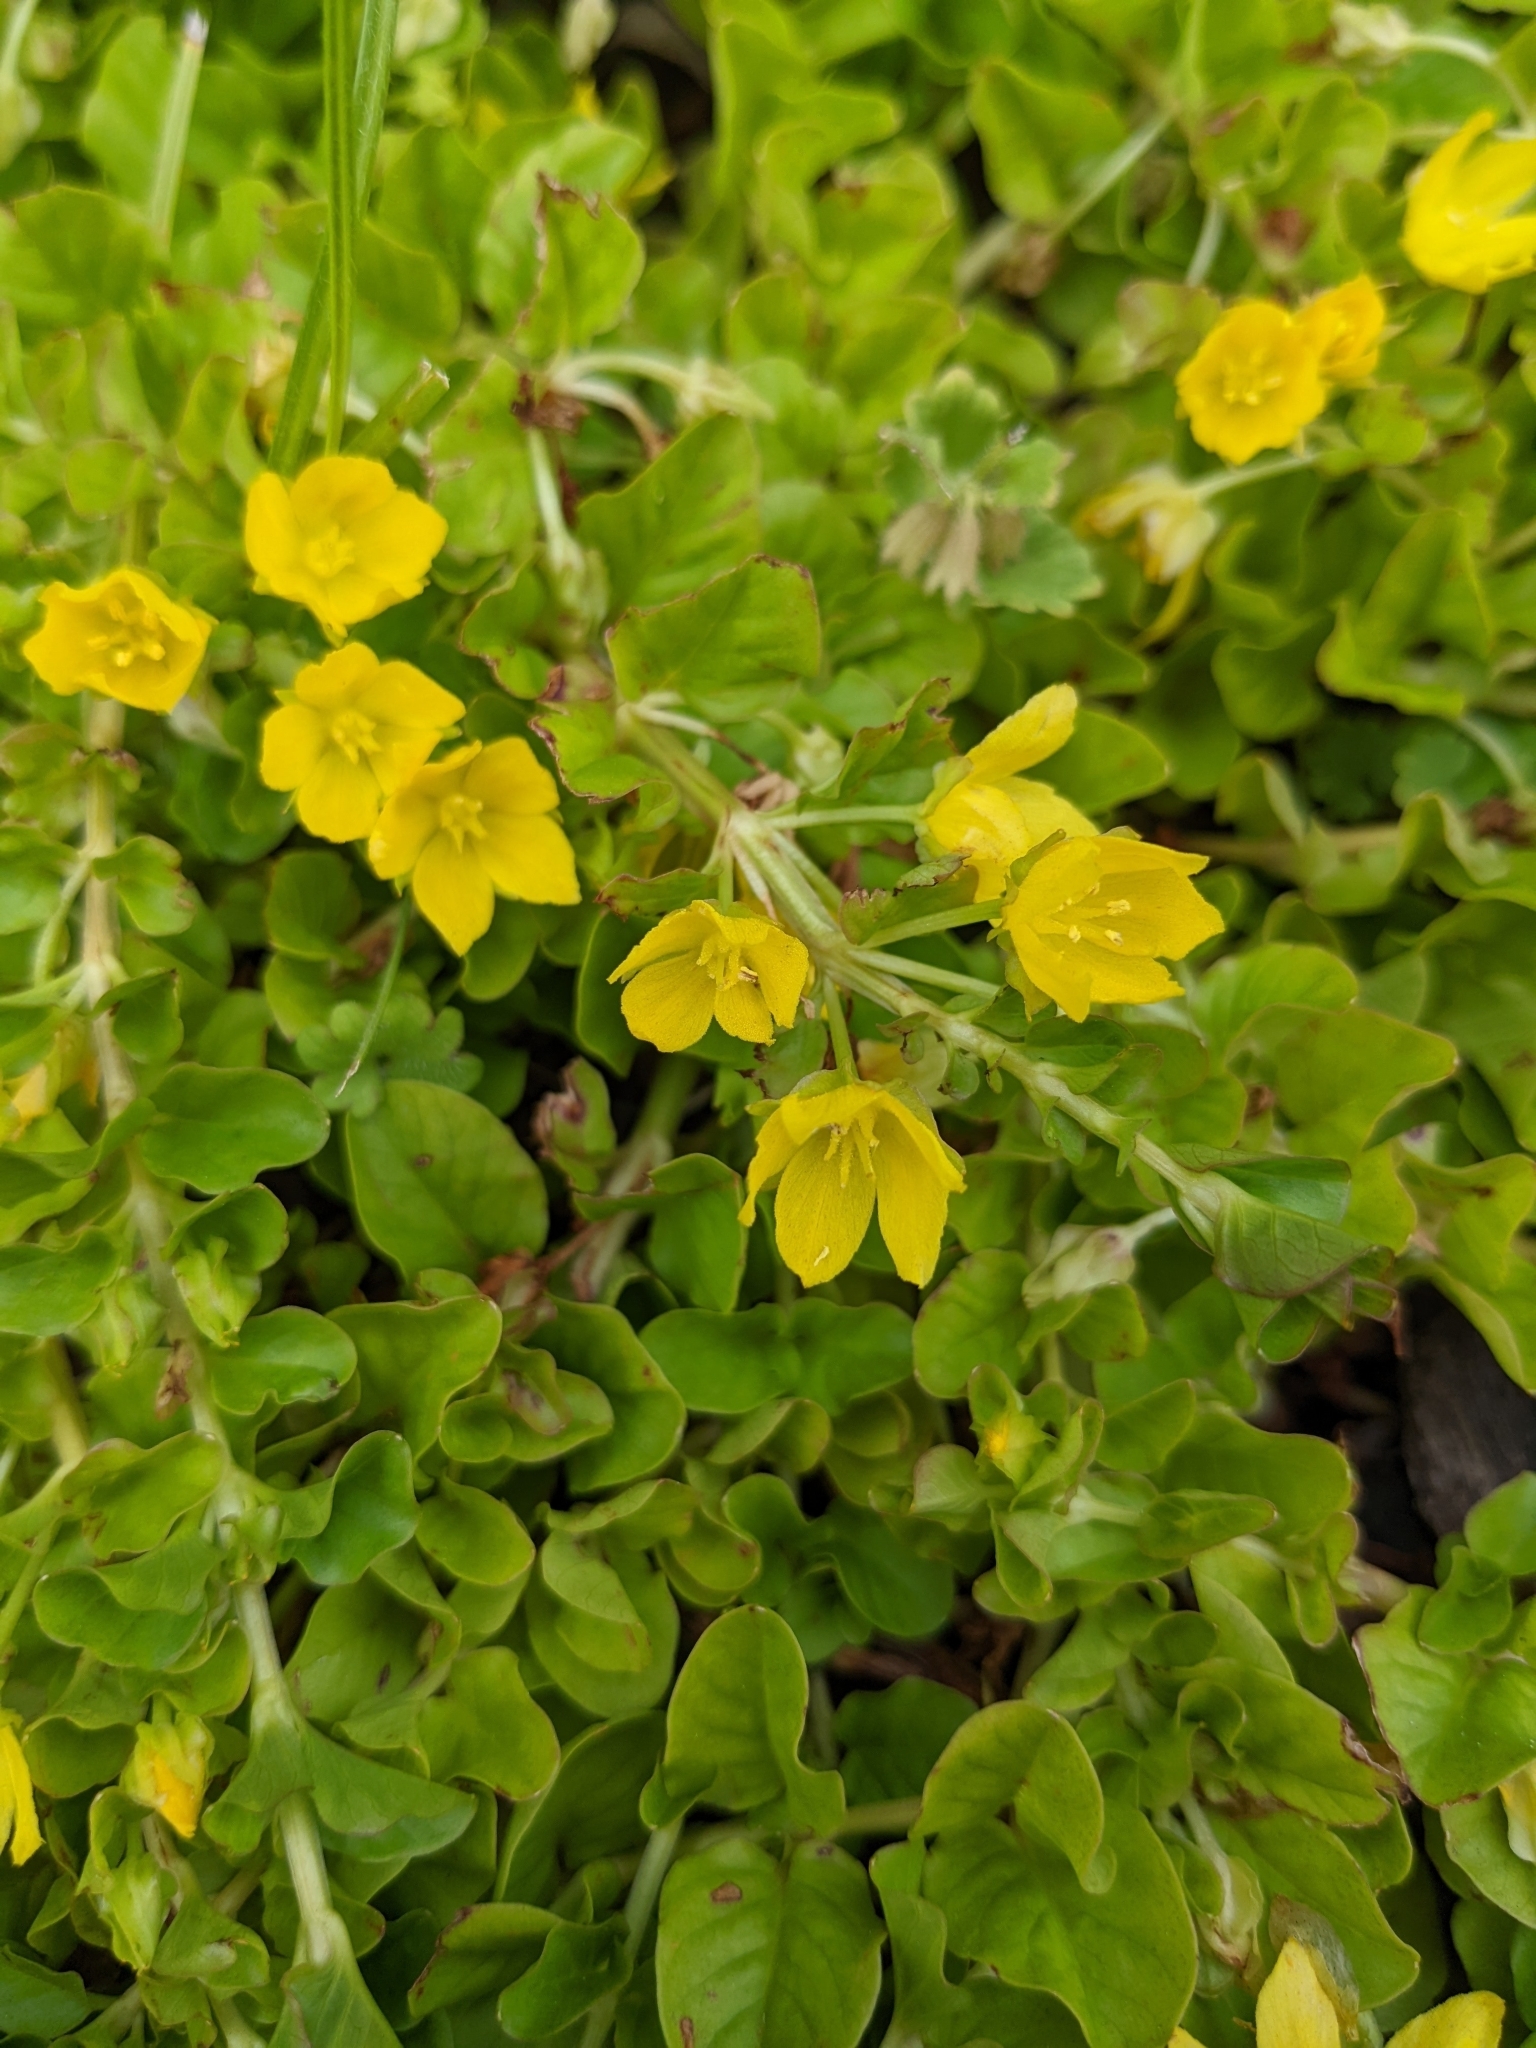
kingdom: Plantae
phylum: Tracheophyta
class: Magnoliopsida
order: Ericales
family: Primulaceae
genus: Lysimachia
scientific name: Lysimachia nummularia
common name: Moneywort
